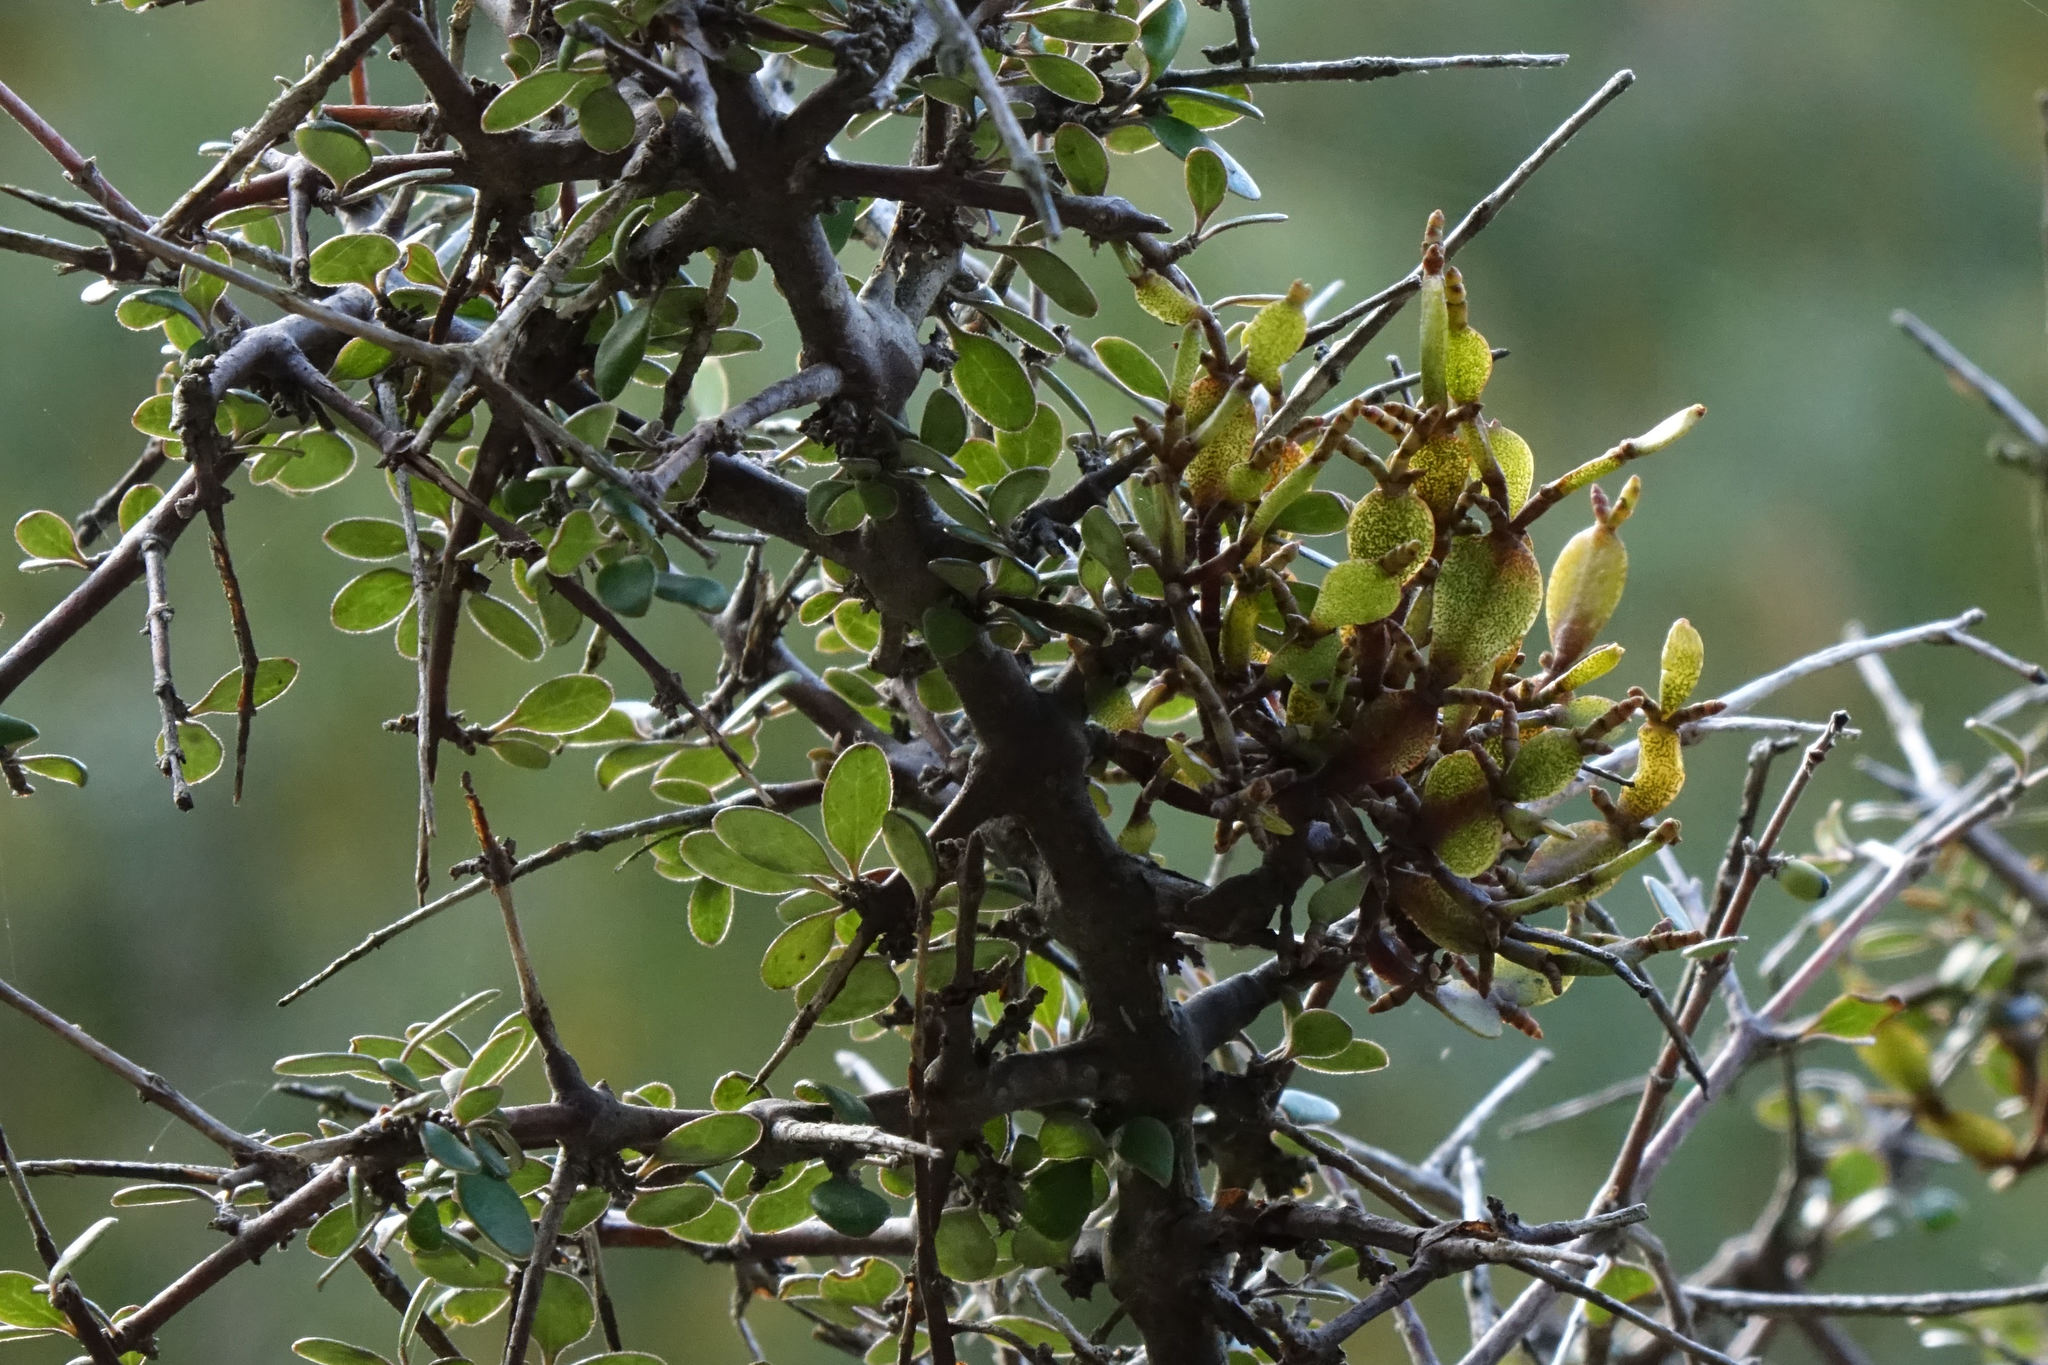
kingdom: Plantae
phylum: Tracheophyta
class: Magnoliopsida
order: Santalales
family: Viscaceae
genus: Korthalsella
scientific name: Korthalsella lindsayi
